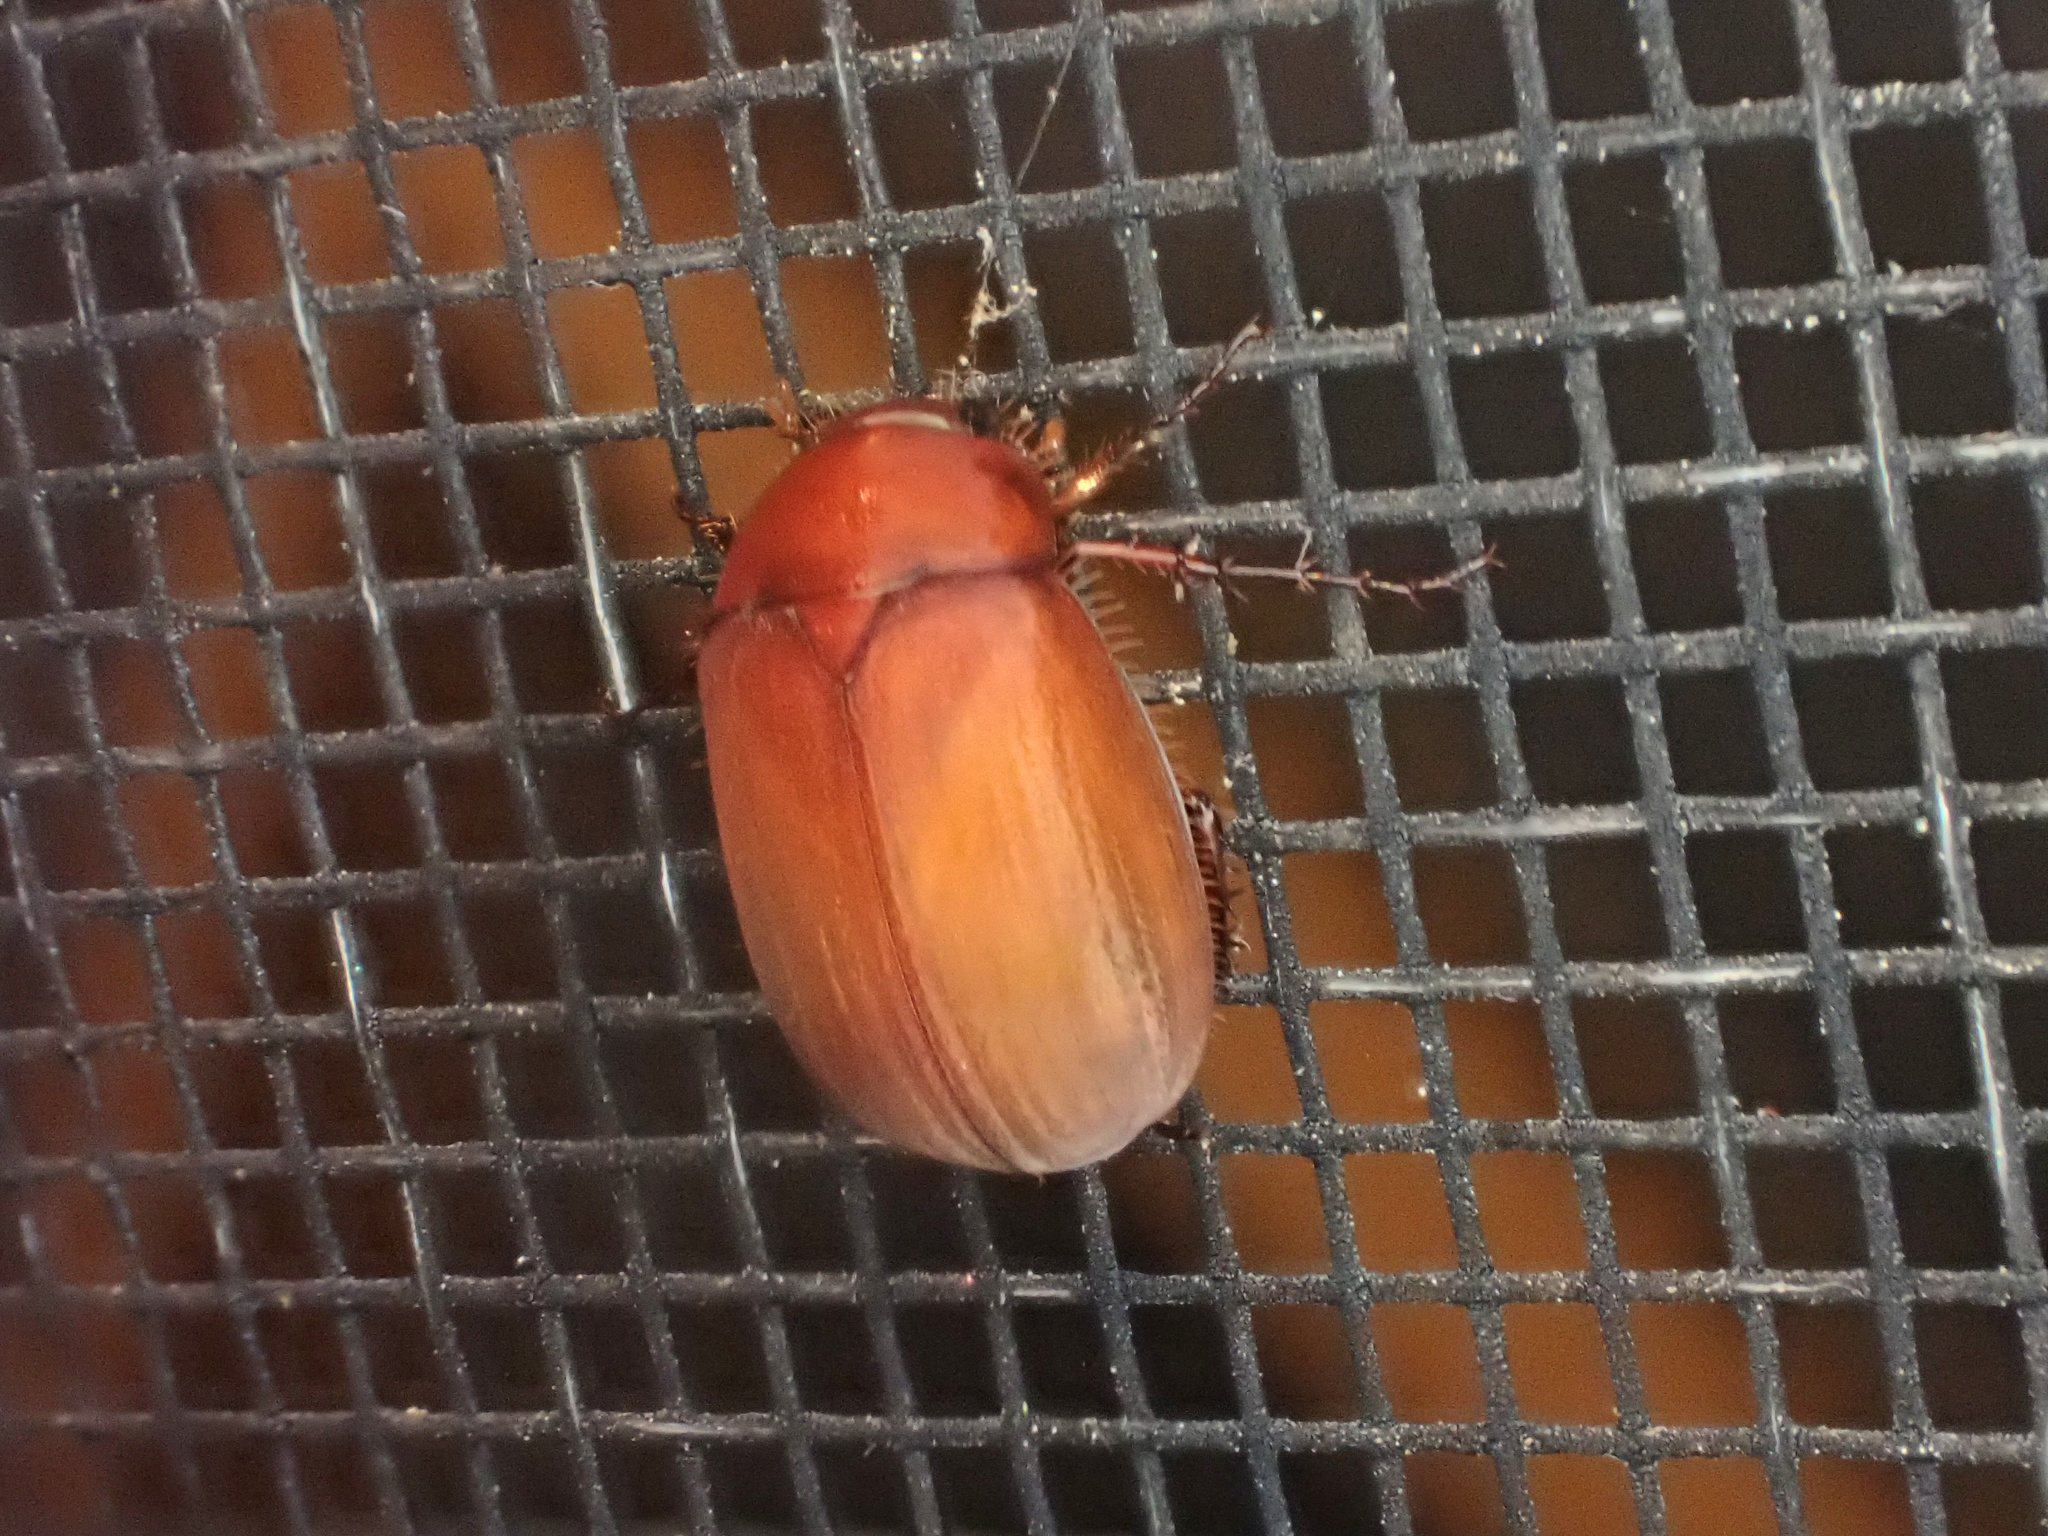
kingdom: Animalia
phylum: Arthropoda
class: Insecta
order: Coleoptera
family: Scarabaeidae
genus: Maladera
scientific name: Maladera formosae
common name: Asiatic garden beetle
